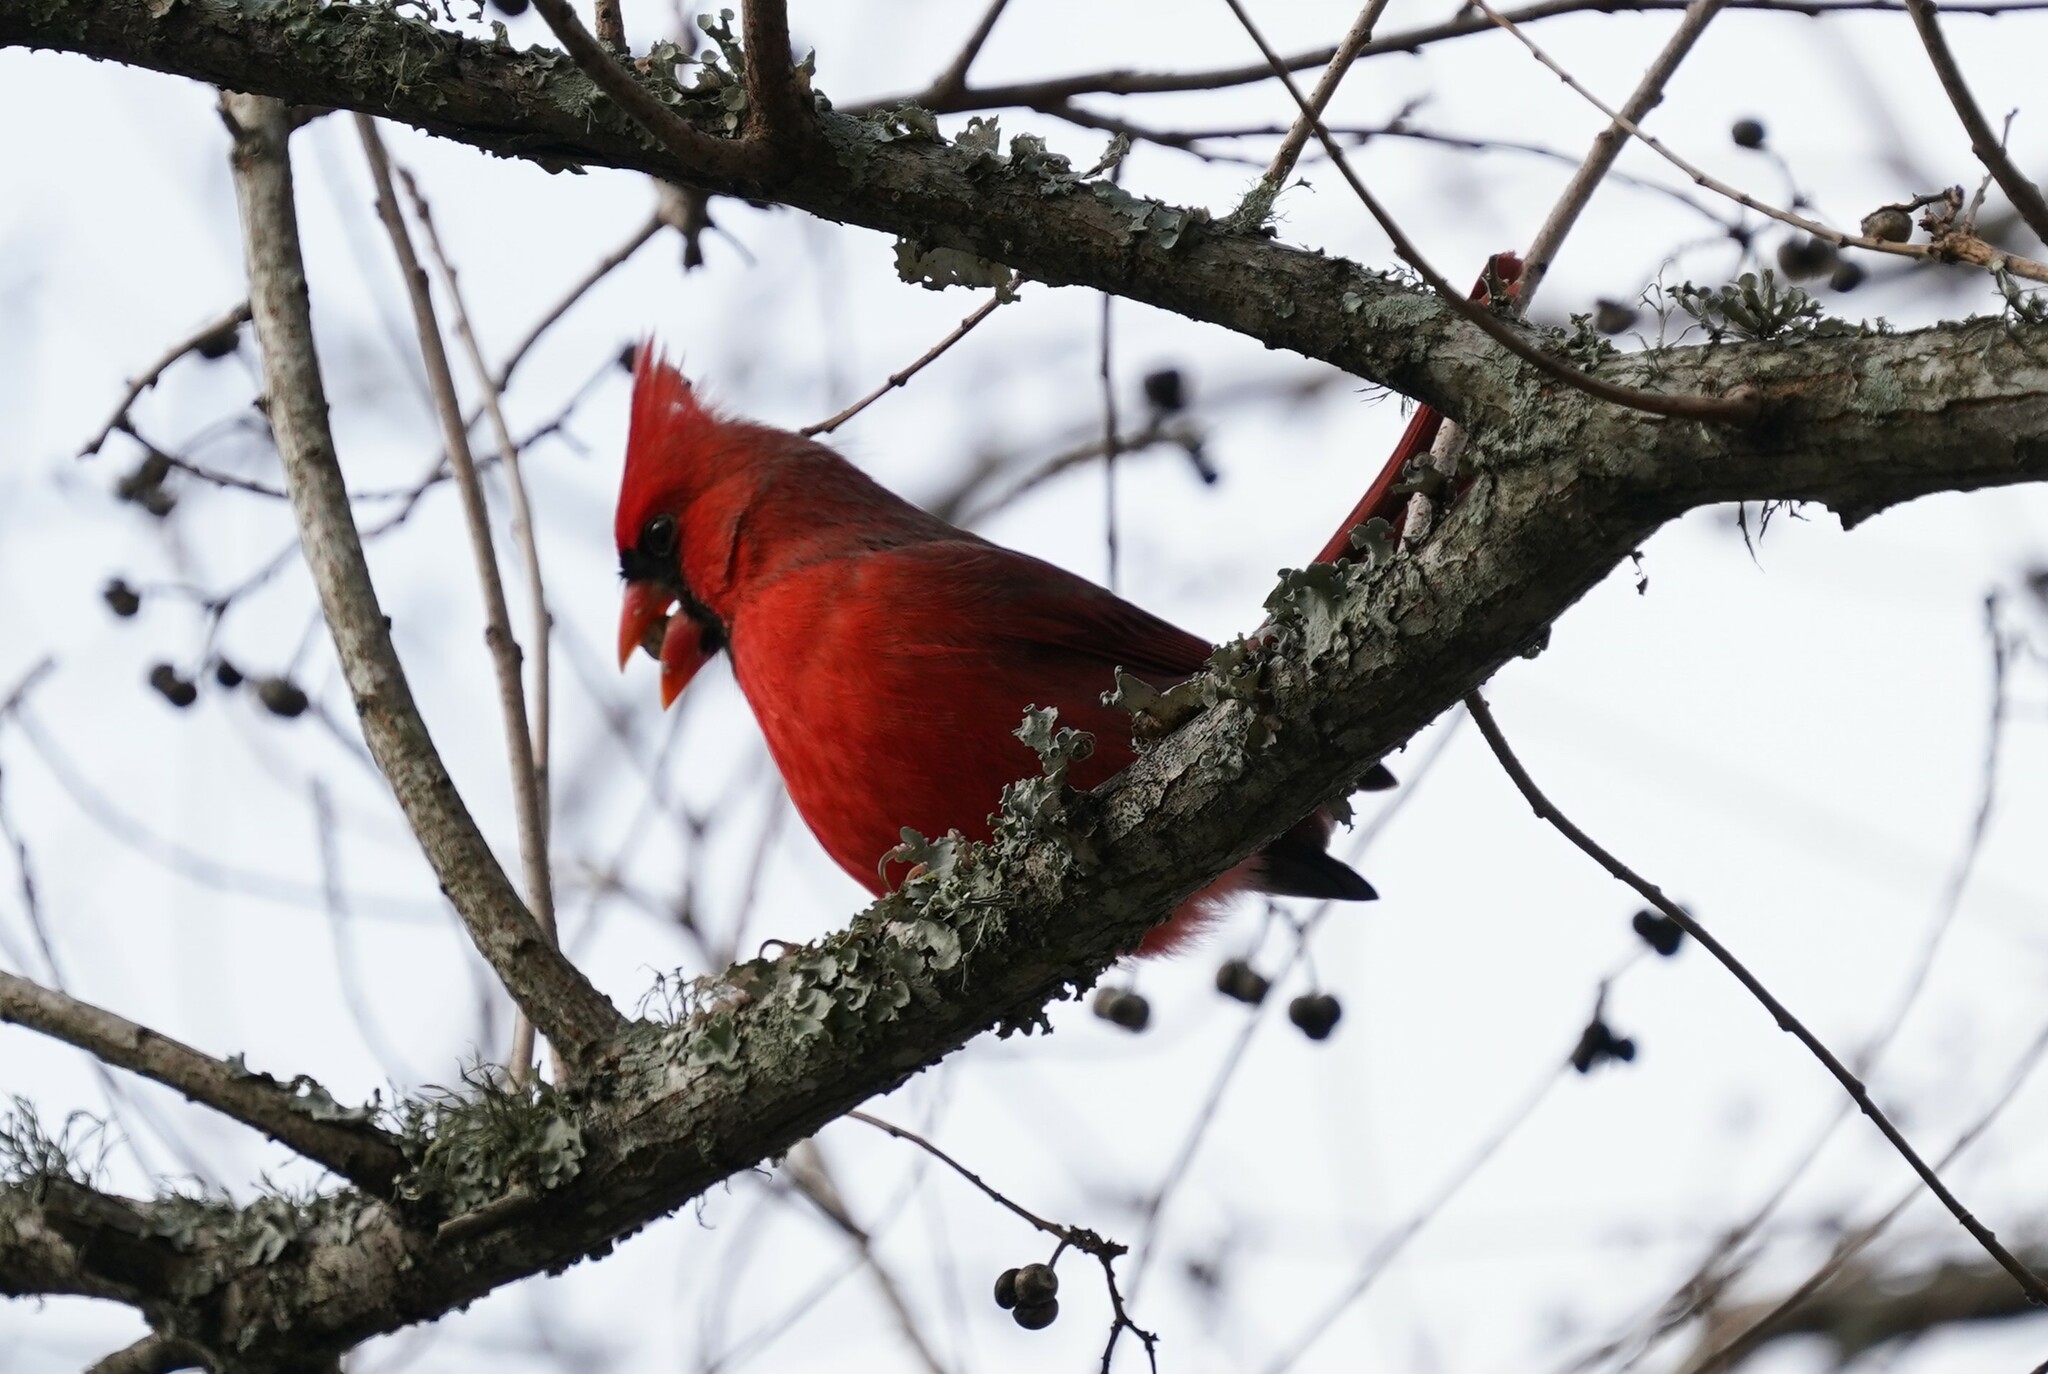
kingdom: Animalia
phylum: Chordata
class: Aves
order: Passeriformes
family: Cardinalidae
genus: Cardinalis
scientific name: Cardinalis cardinalis
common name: Northern cardinal
